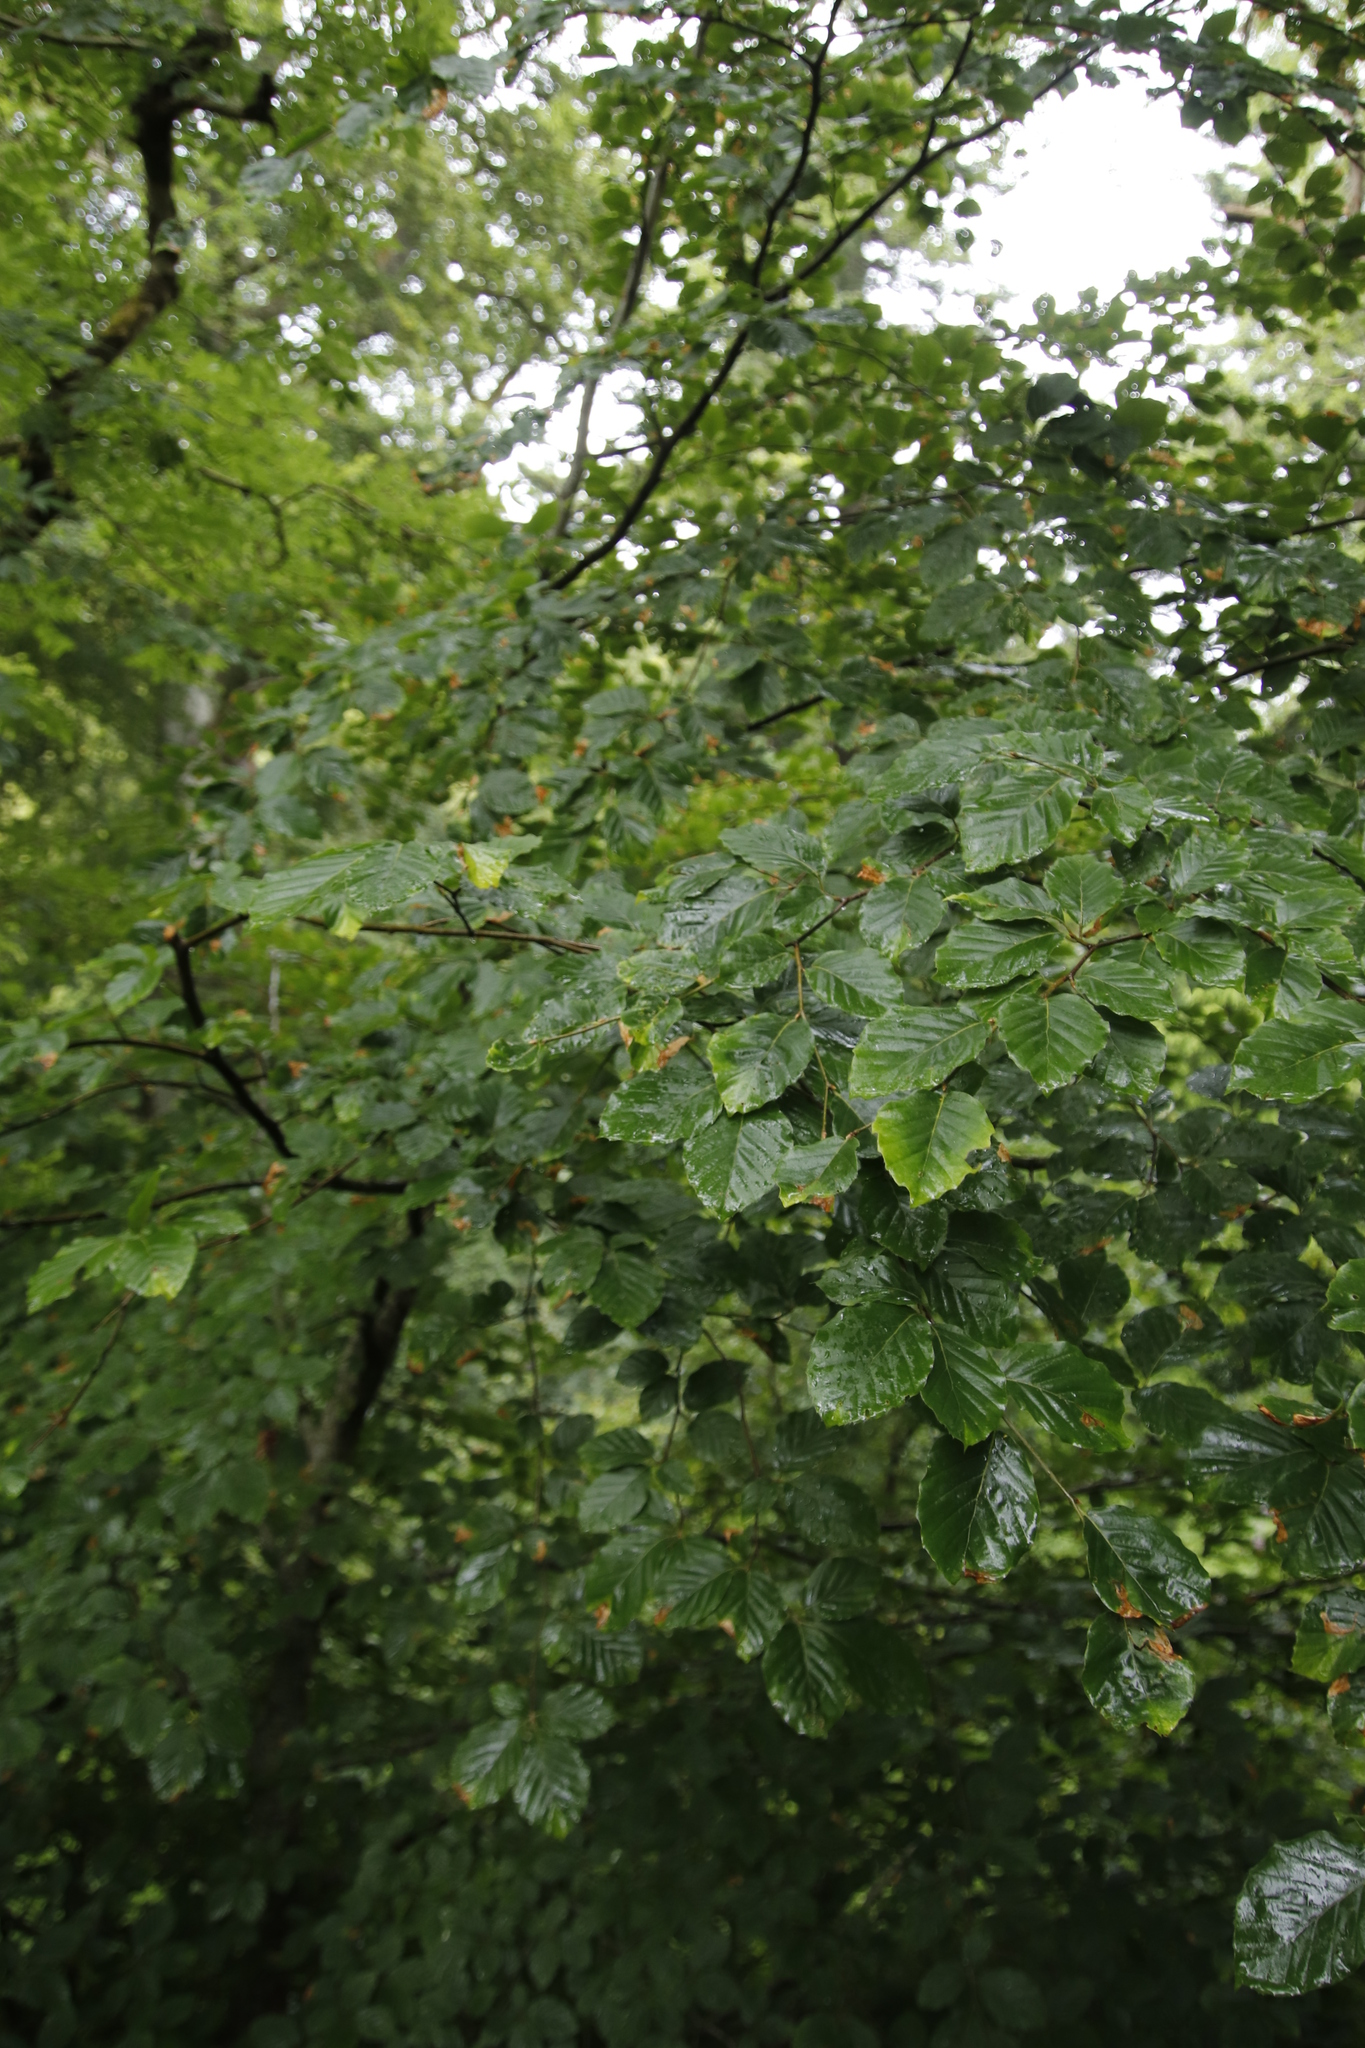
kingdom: Plantae
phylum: Tracheophyta
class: Magnoliopsida
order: Fagales
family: Fagaceae
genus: Fagus
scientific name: Fagus sylvatica
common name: Beech
